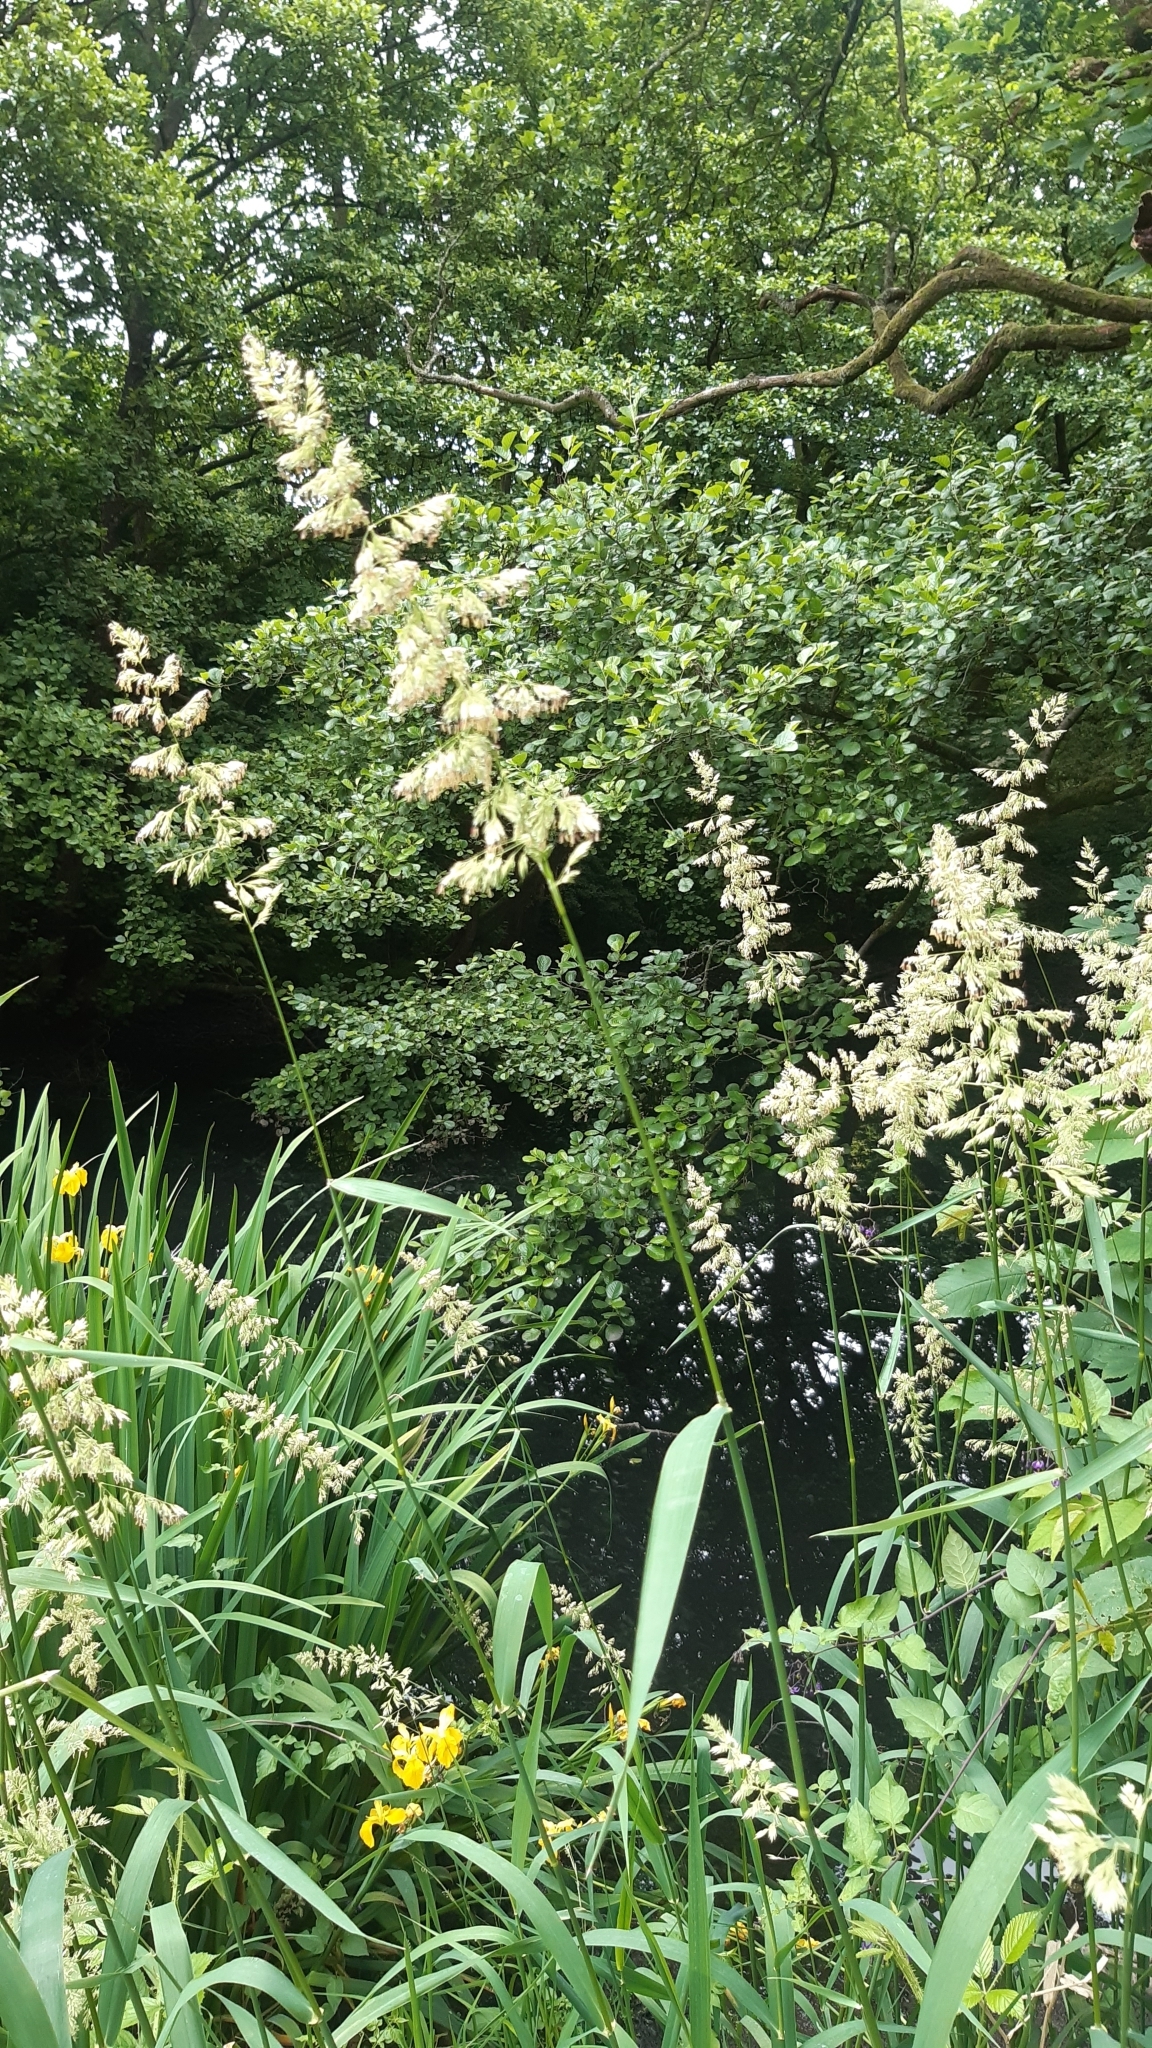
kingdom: Plantae
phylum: Tracheophyta
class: Liliopsida
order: Poales
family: Poaceae
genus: Phalaris
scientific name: Phalaris arundinacea
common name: Reed canary-grass
